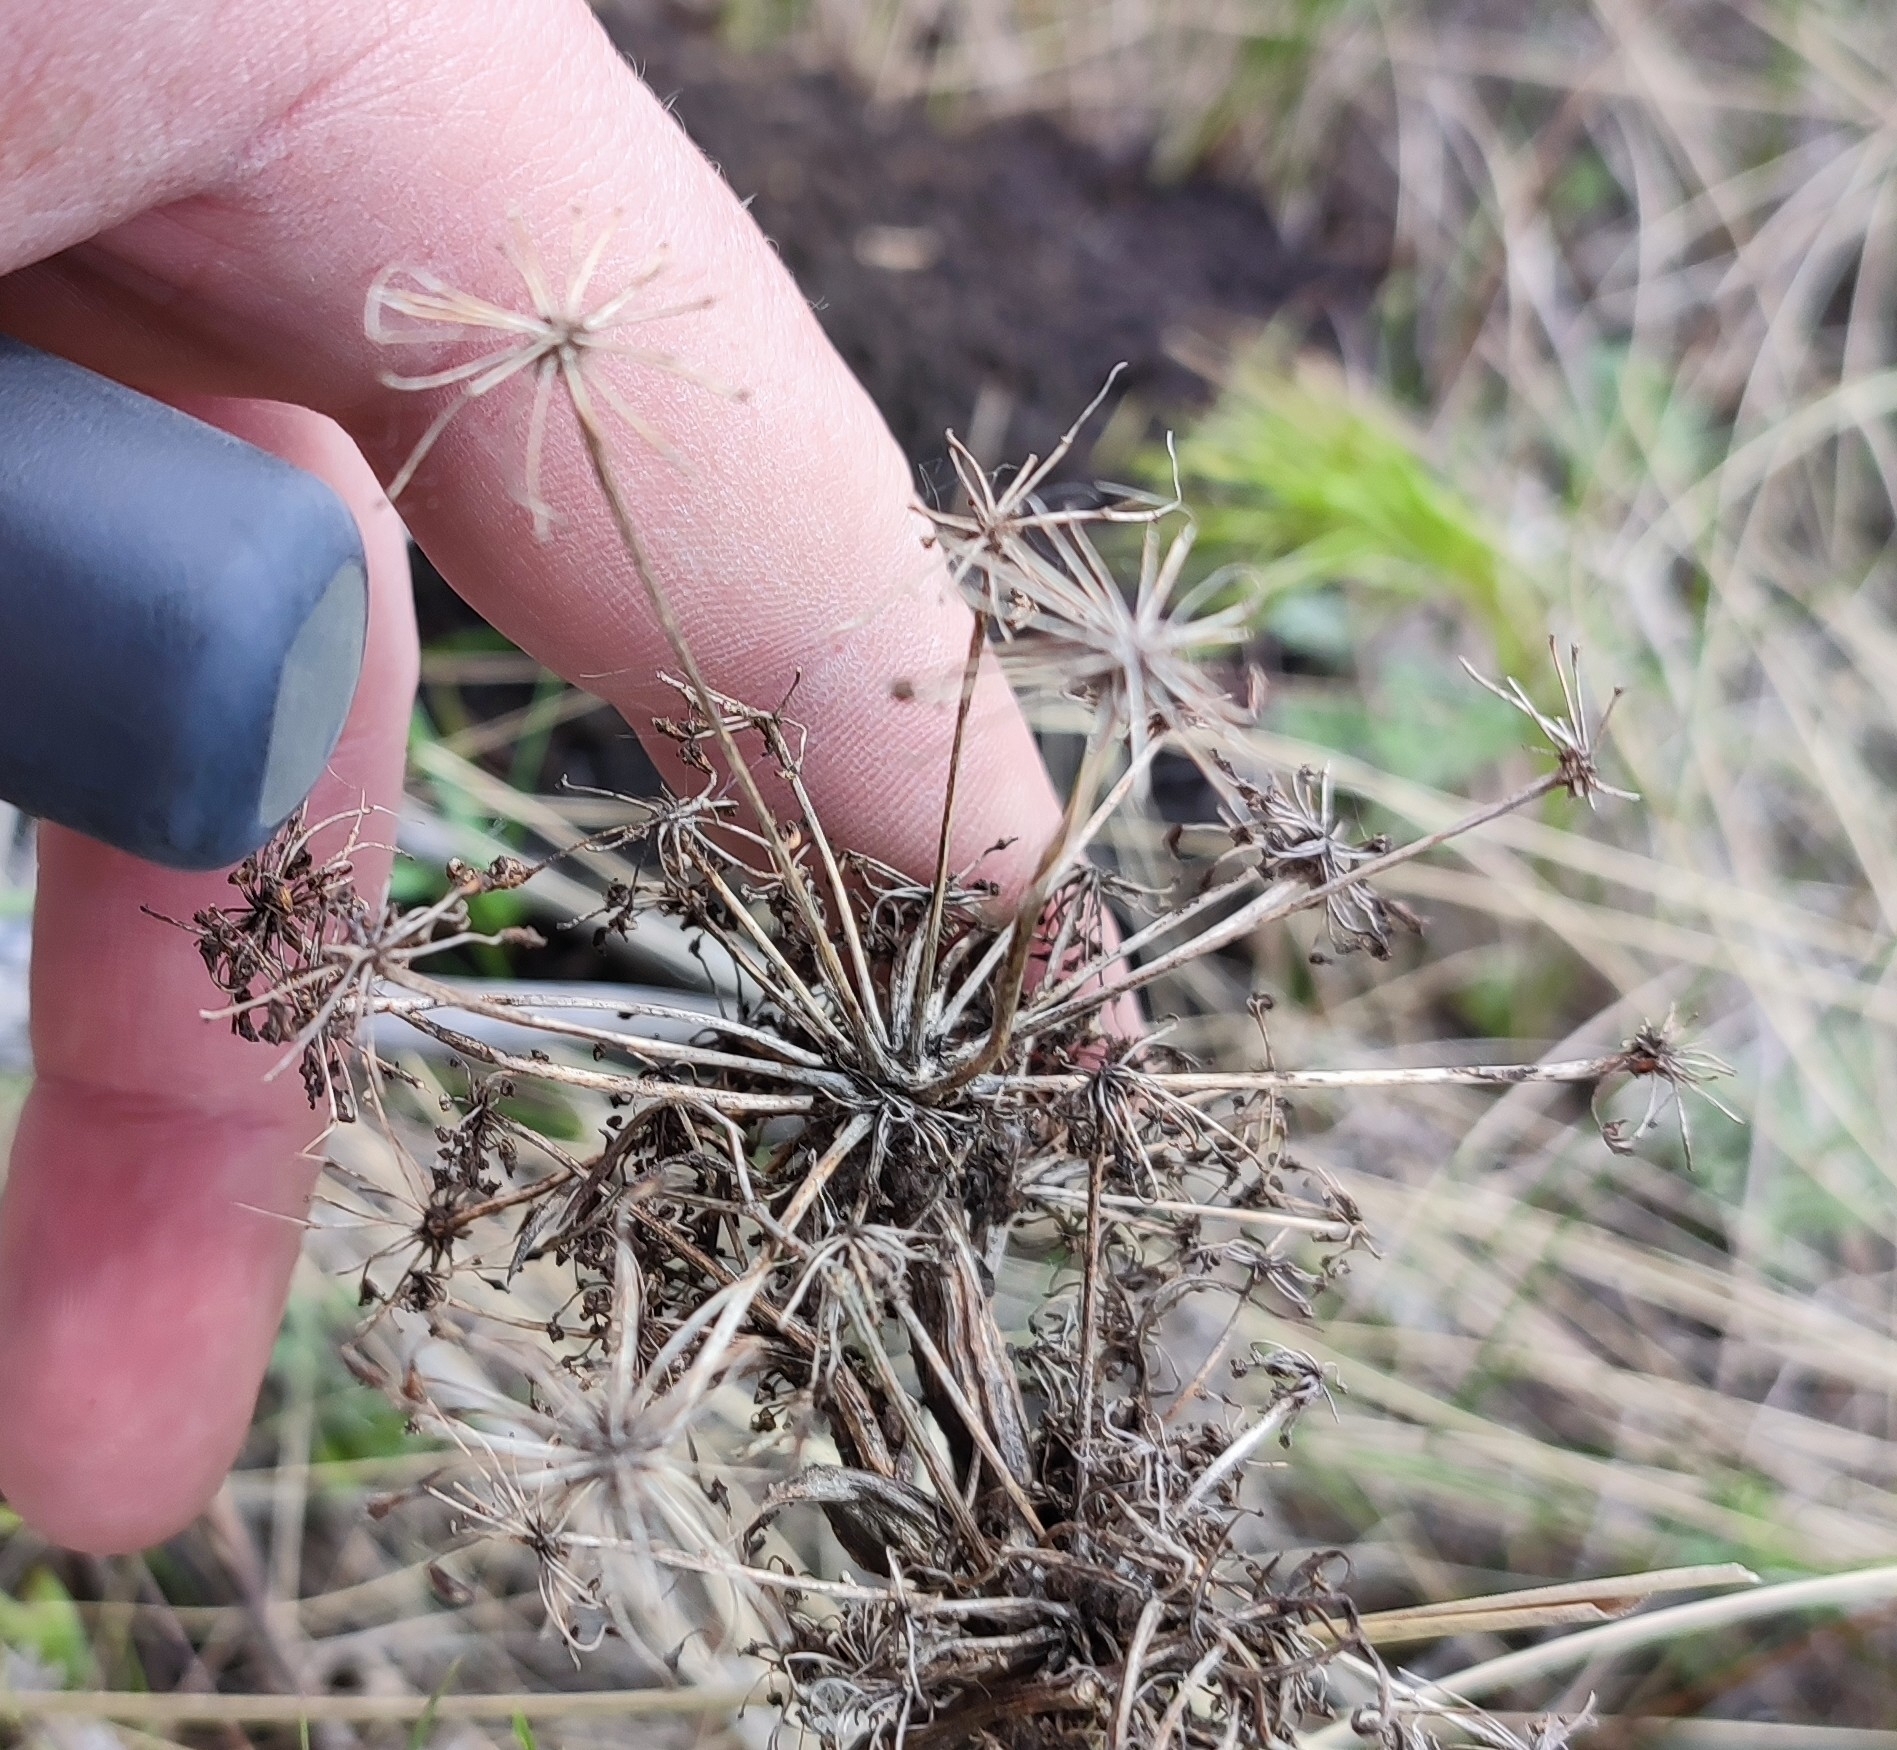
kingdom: Plantae
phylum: Tracheophyta
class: Magnoliopsida
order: Apiales
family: Apiaceae
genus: Peucedanum
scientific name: Peucedanum morisonii
